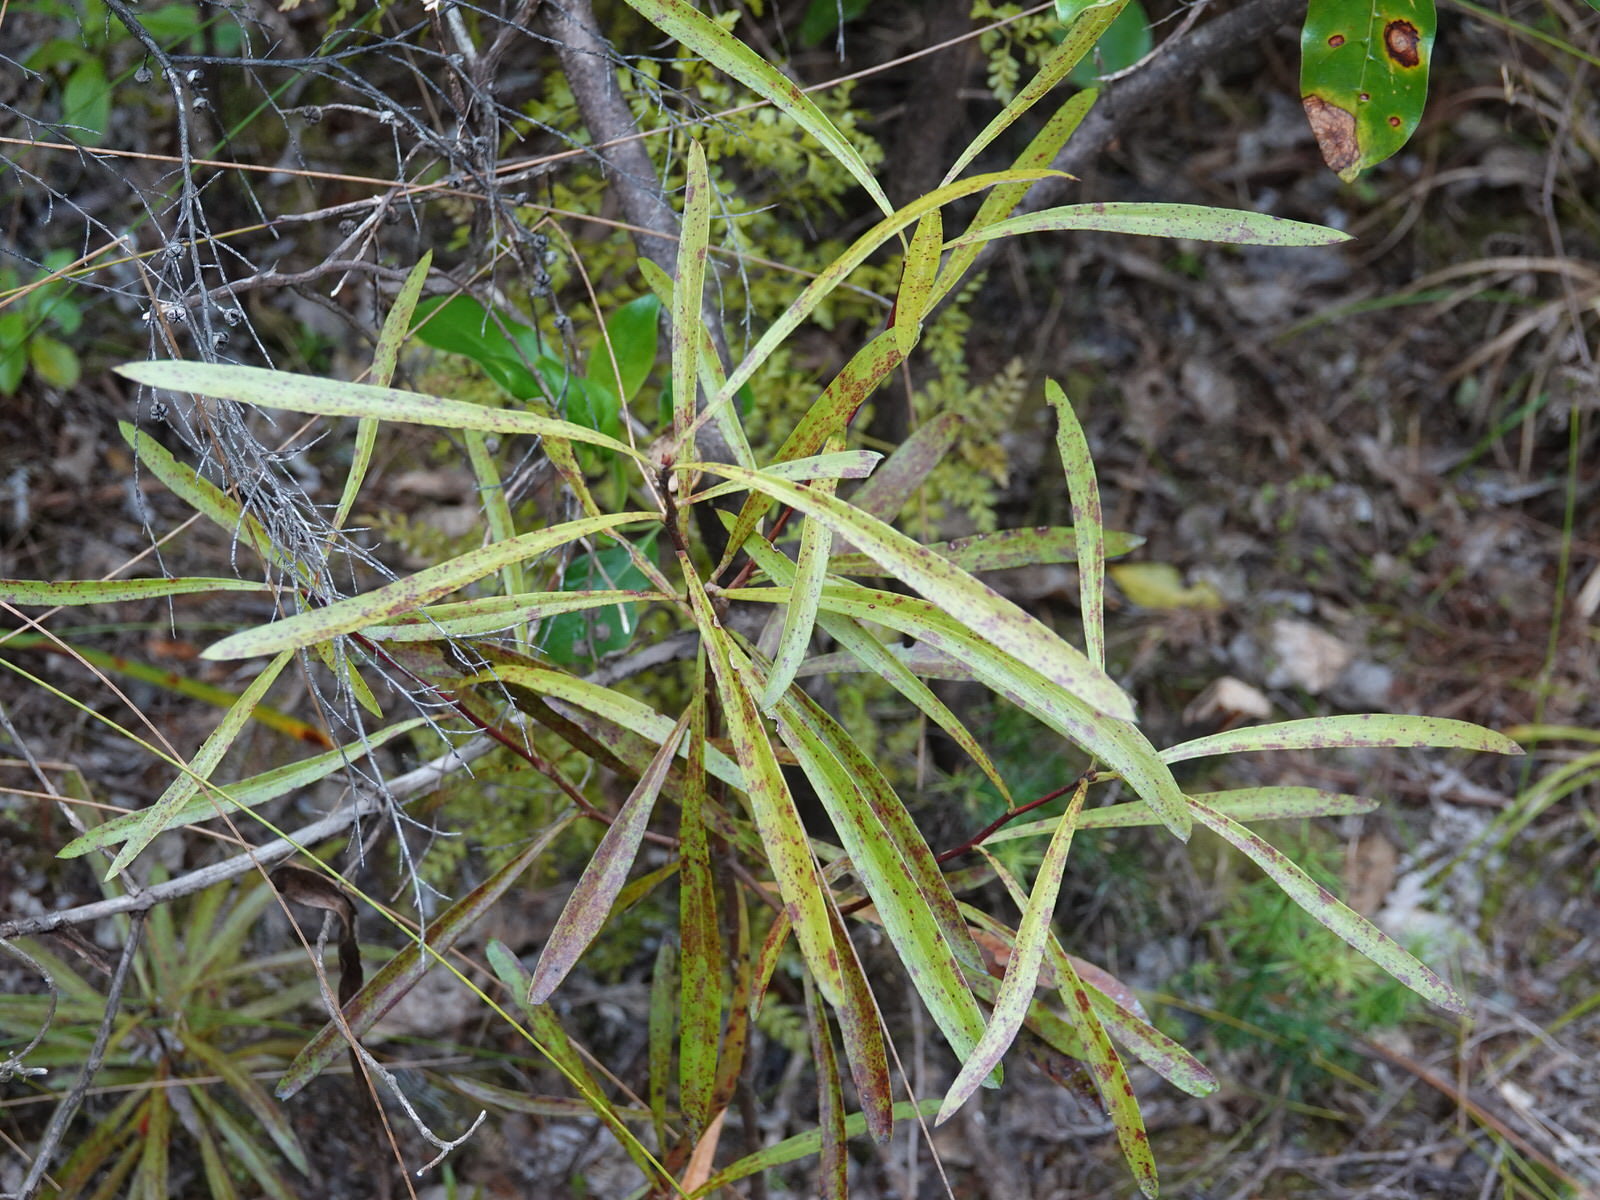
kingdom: Plantae
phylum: Tracheophyta
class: Magnoliopsida
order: Proteales
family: Proteaceae
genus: Toronia
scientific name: Toronia toru
